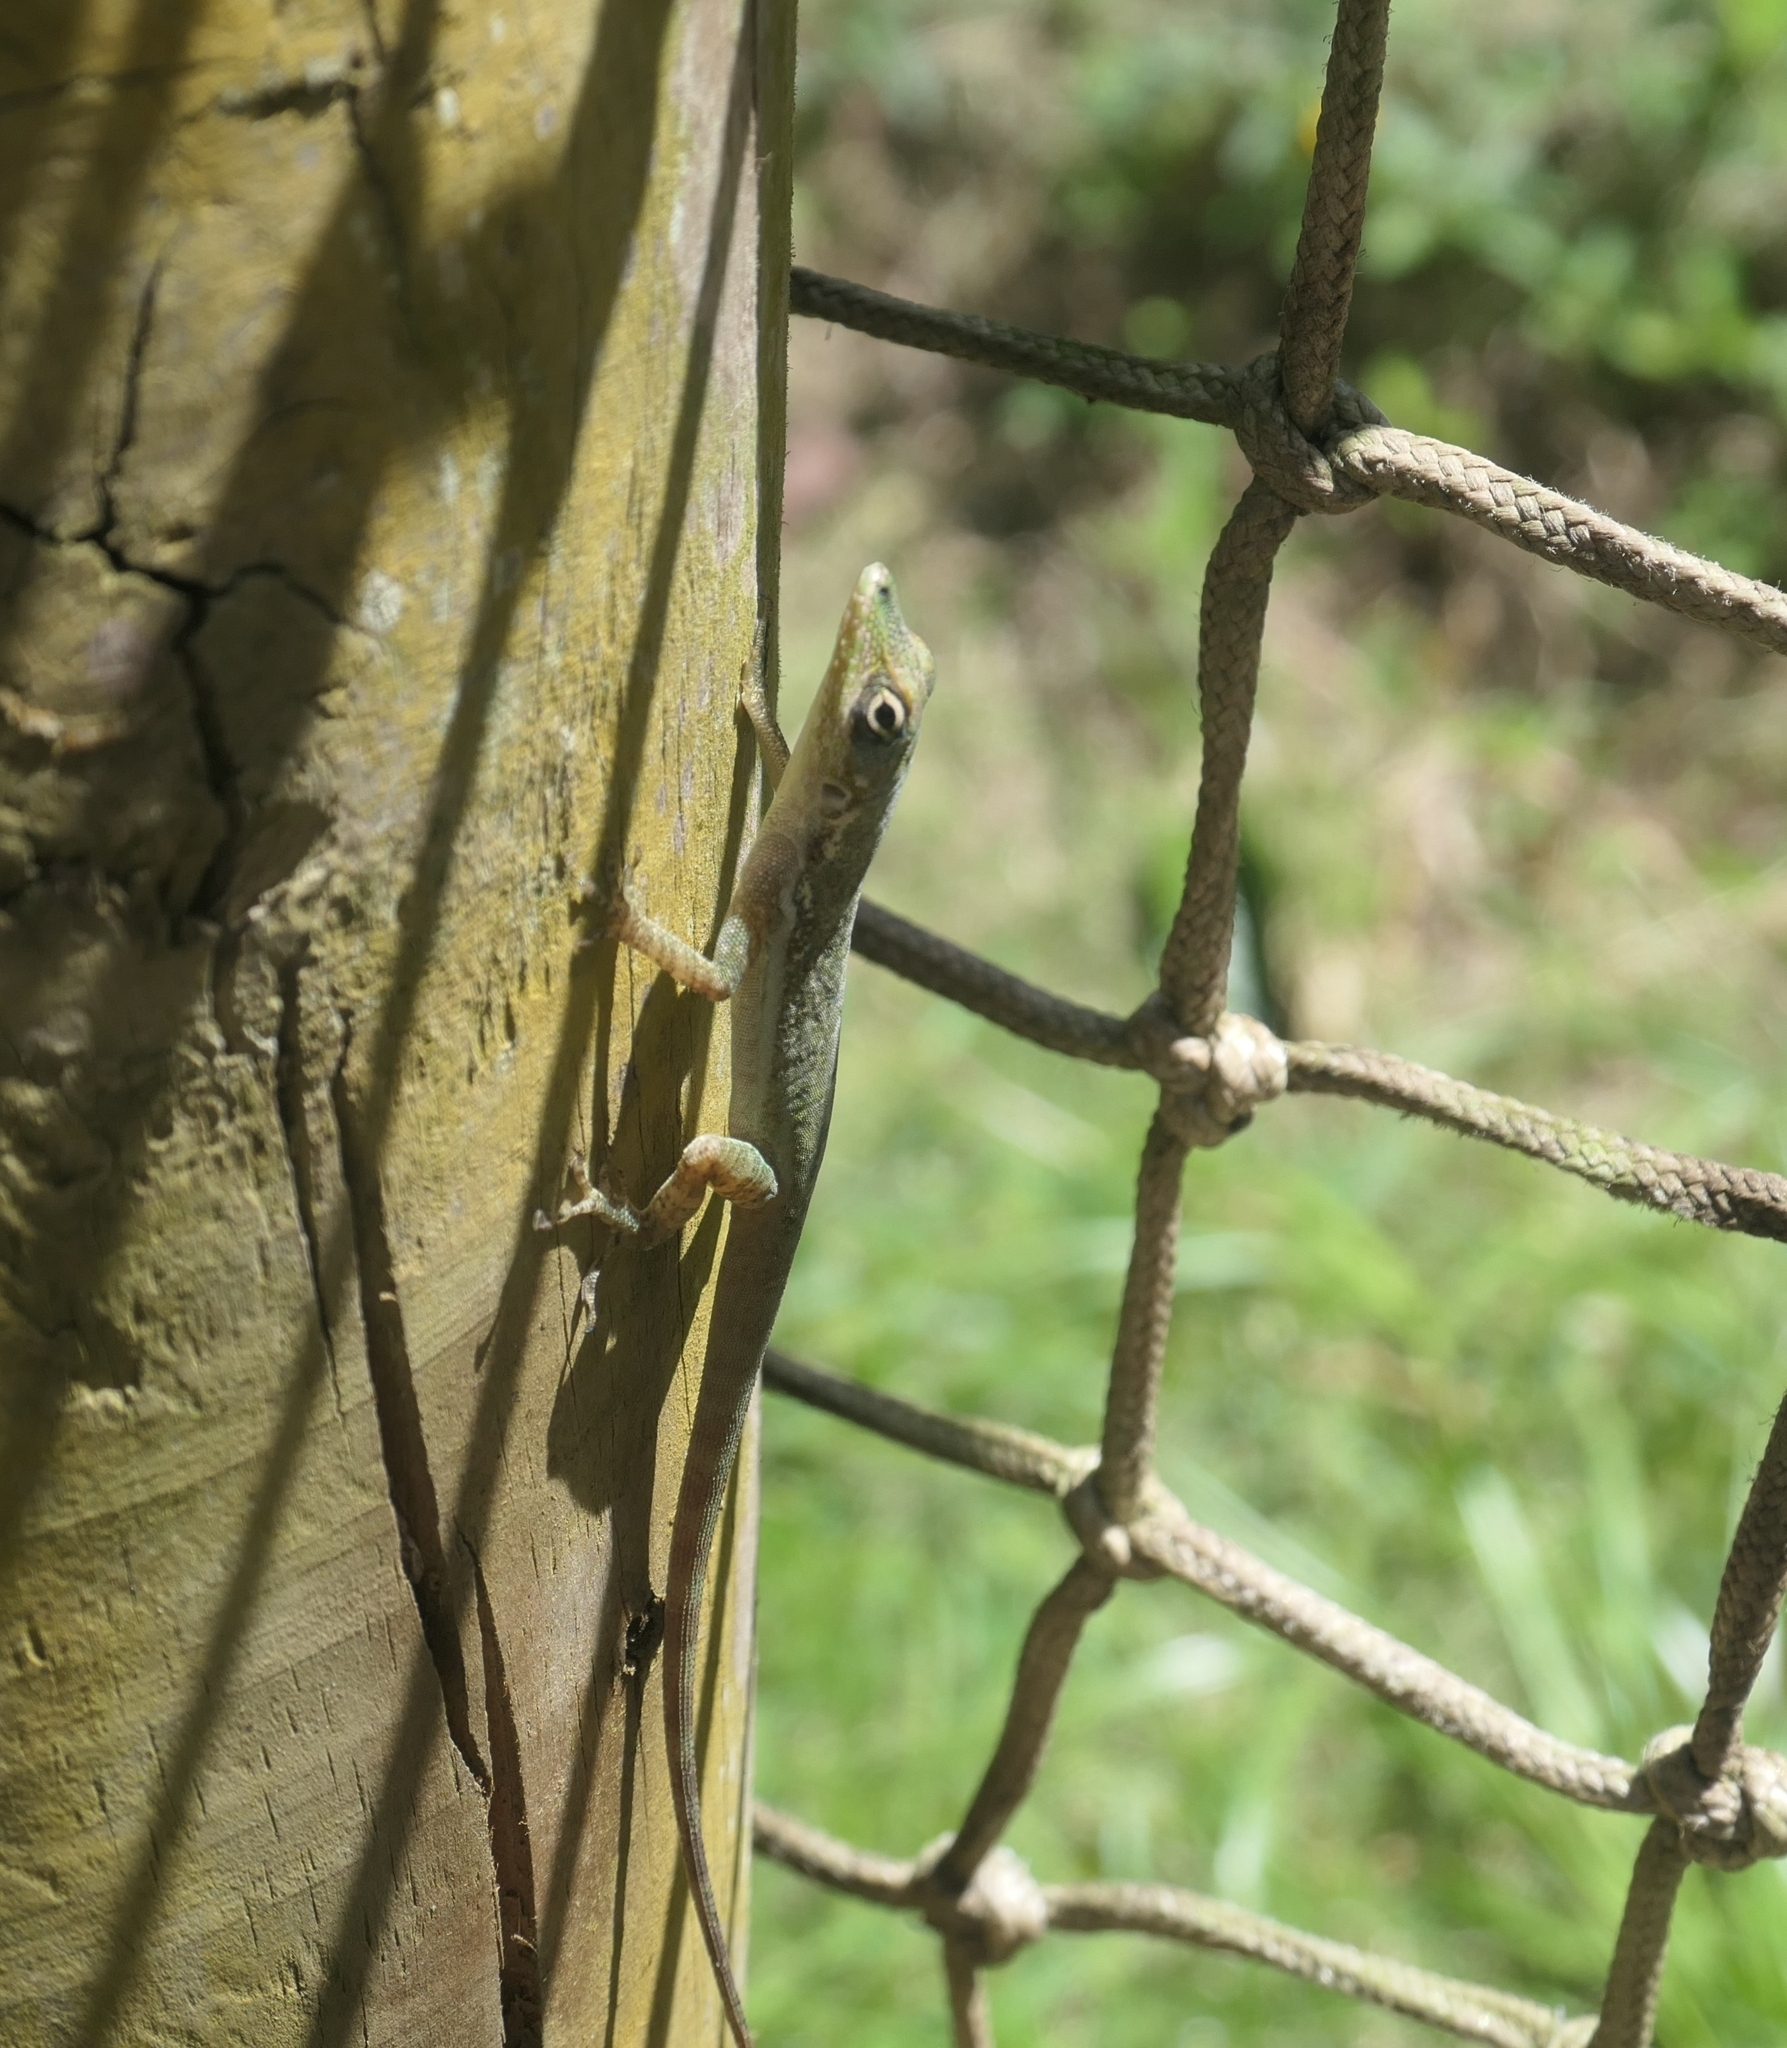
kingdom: Animalia
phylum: Chordata
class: Squamata
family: Dactyloidae
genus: Anolis
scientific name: Anolis roquet
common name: Martinique anole
